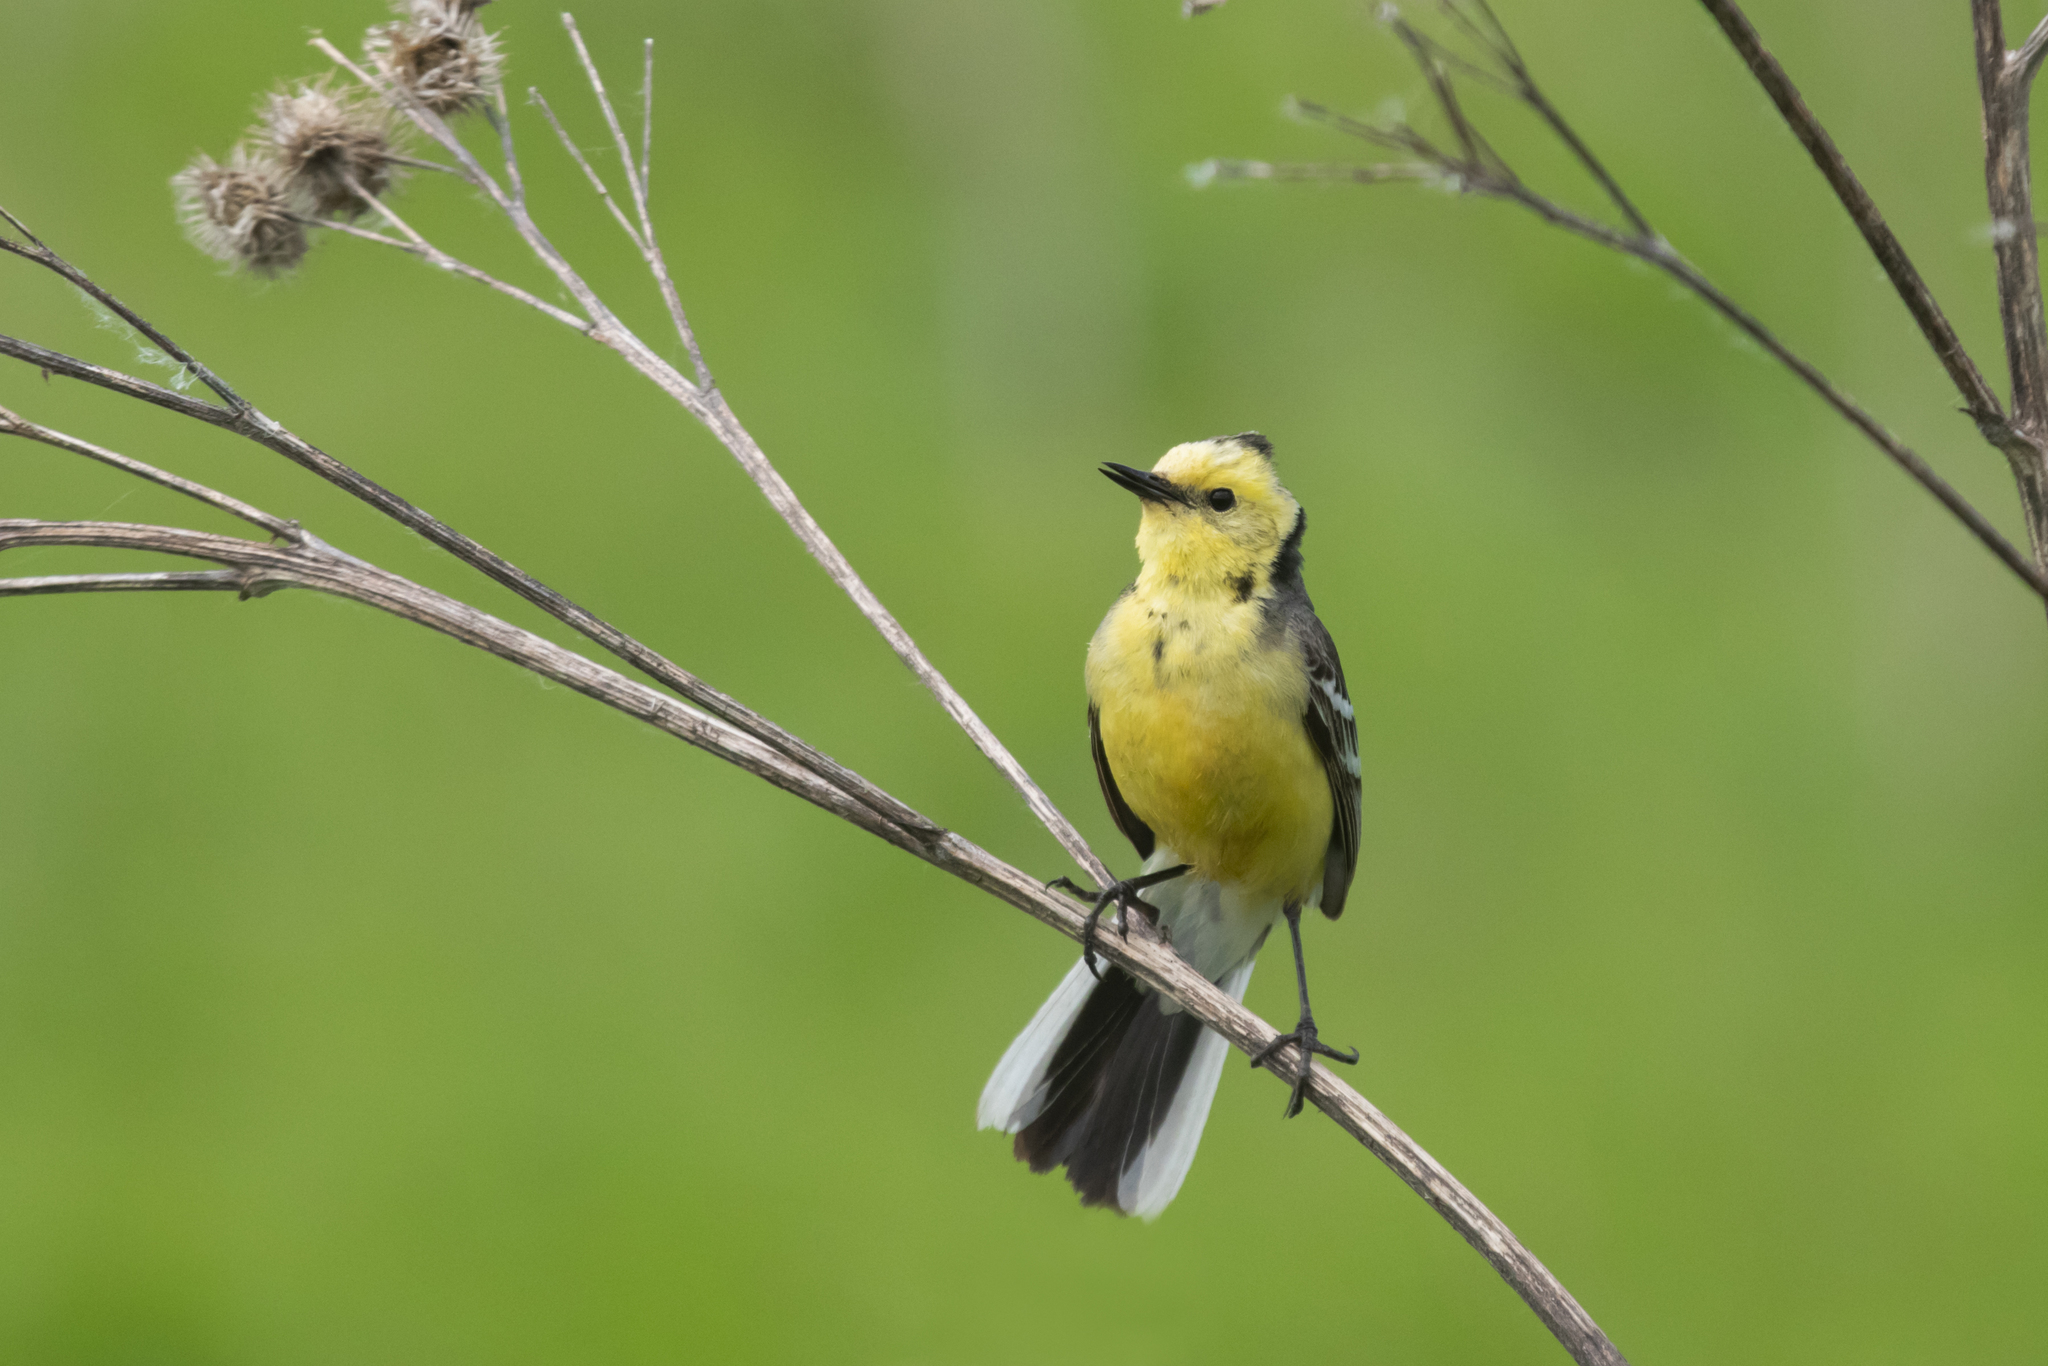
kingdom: Animalia
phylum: Chordata
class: Aves
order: Passeriformes
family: Motacillidae
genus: Motacilla
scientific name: Motacilla citreola
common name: Citrine wagtail
